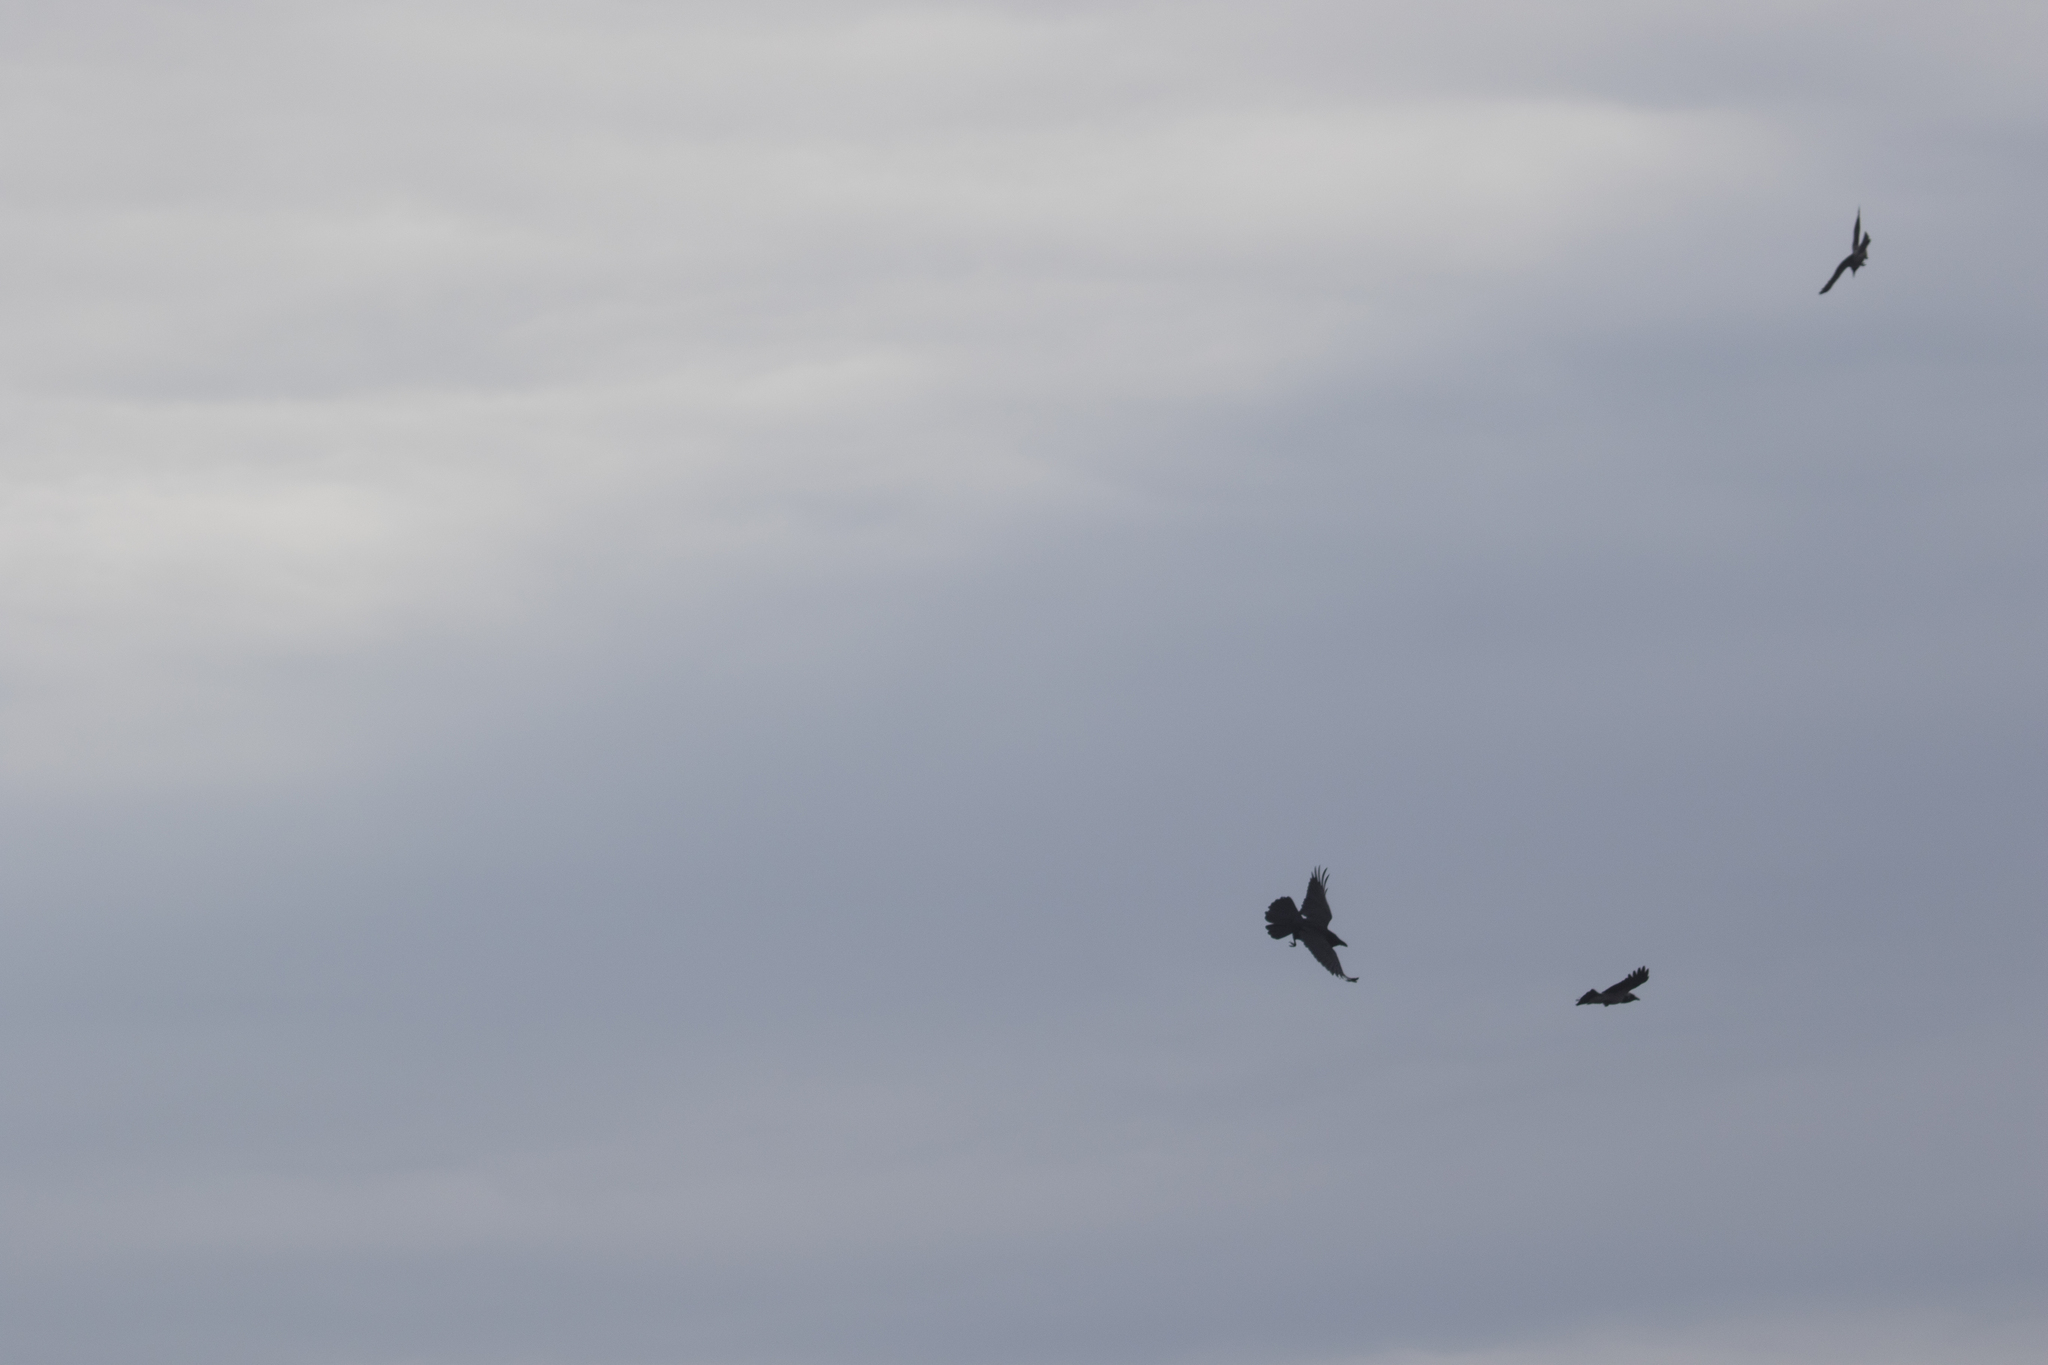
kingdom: Animalia
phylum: Chordata
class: Aves
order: Passeriformes
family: Corvidae
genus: Corvus
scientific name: Corvus corax
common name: Common raven
